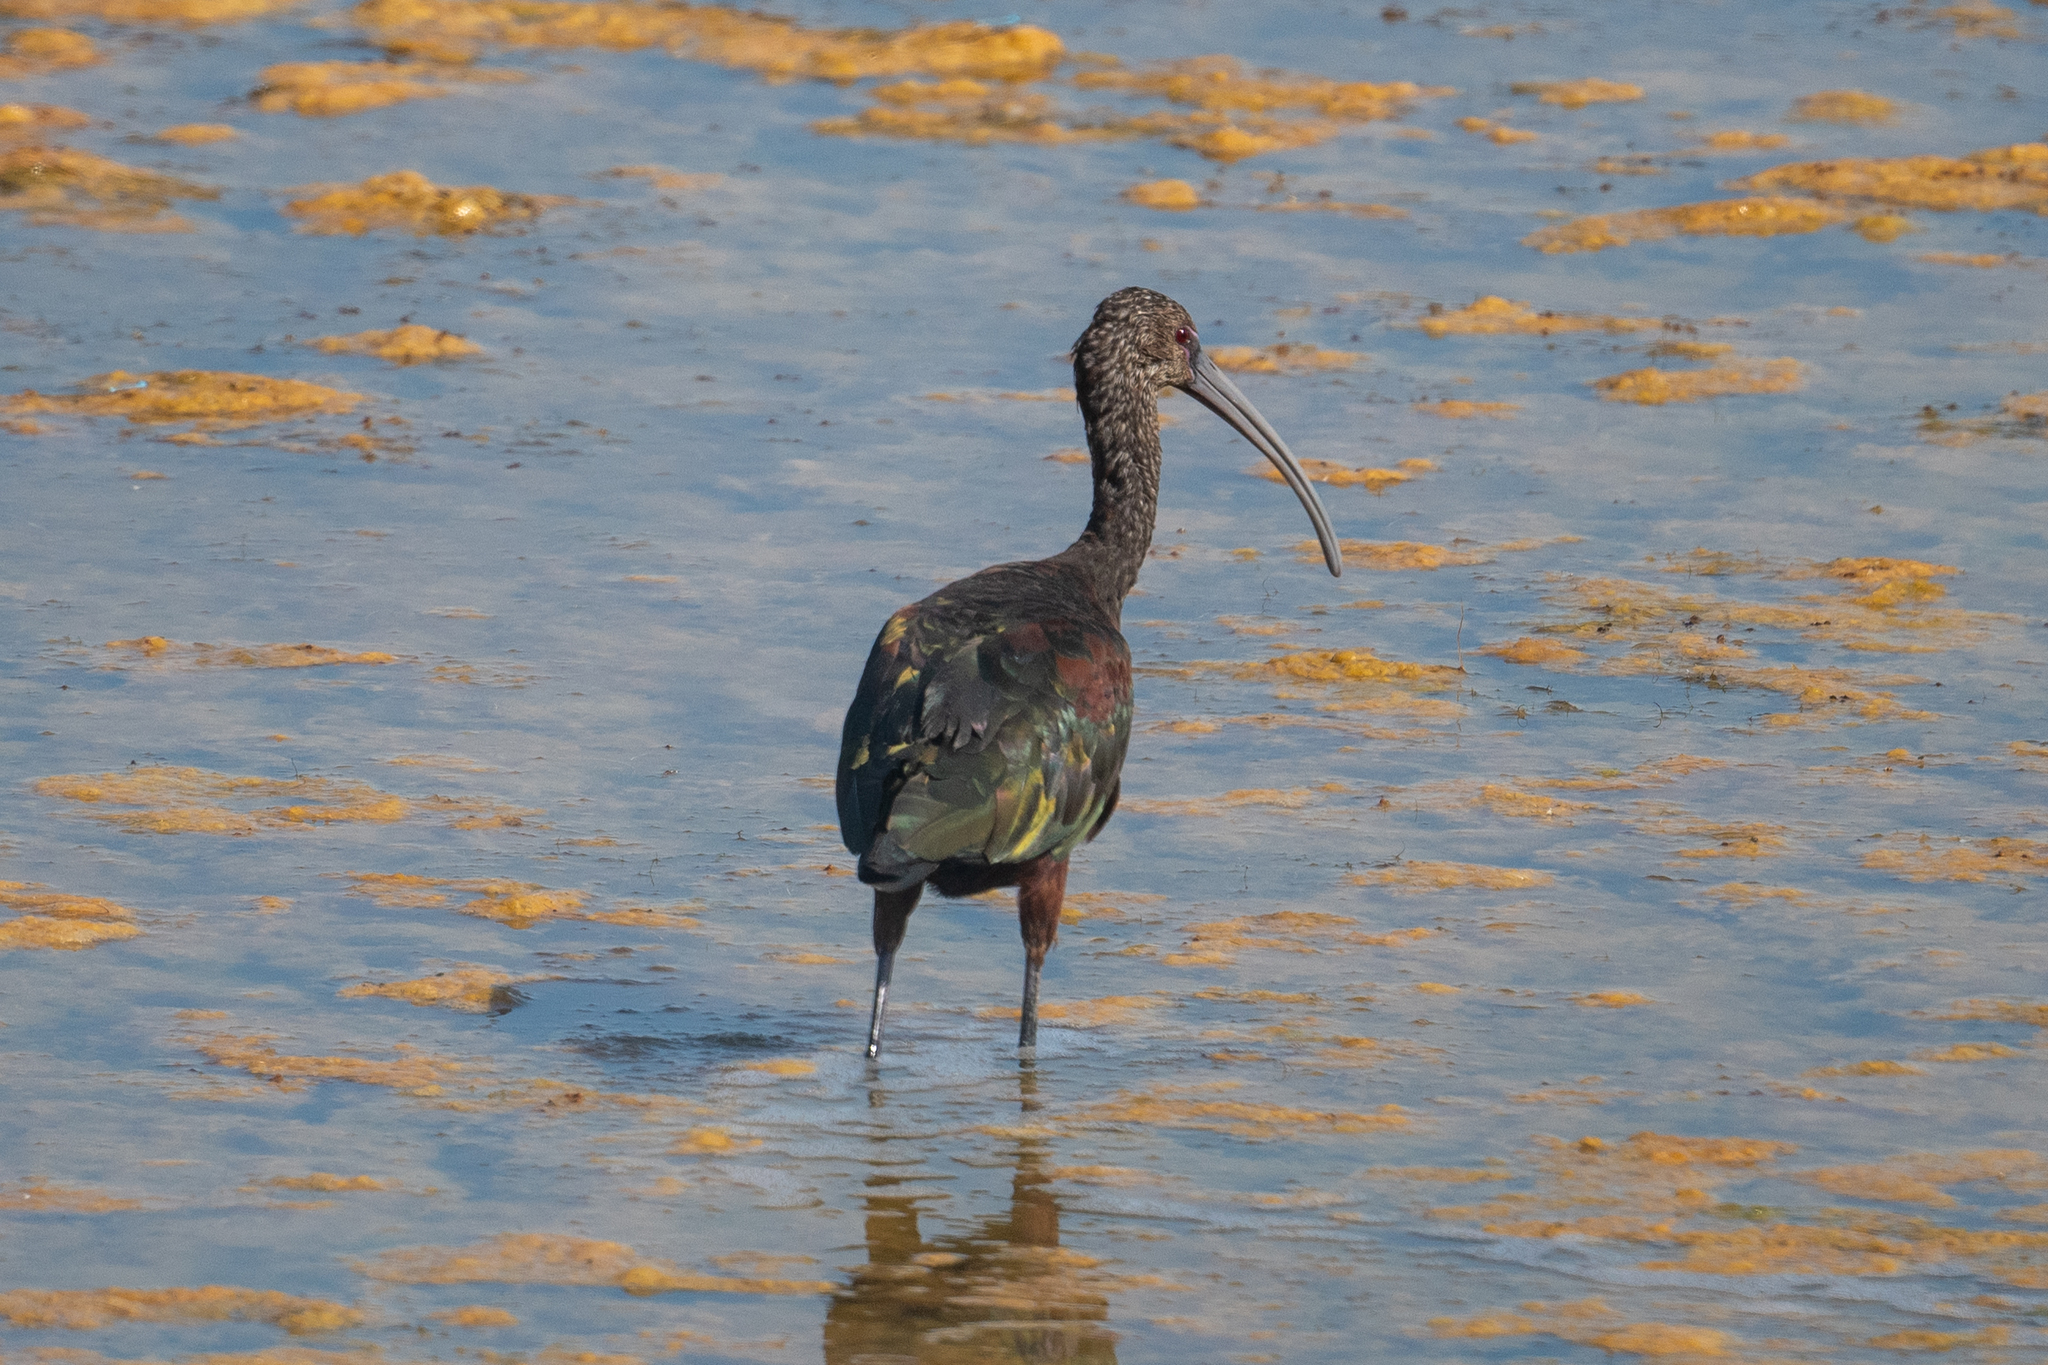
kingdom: Animalia
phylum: Chordata
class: Aves
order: Pelecaniformes
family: Threskiornithidae
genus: Plegadis
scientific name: Plegadis chihi
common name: White-faced ibis
